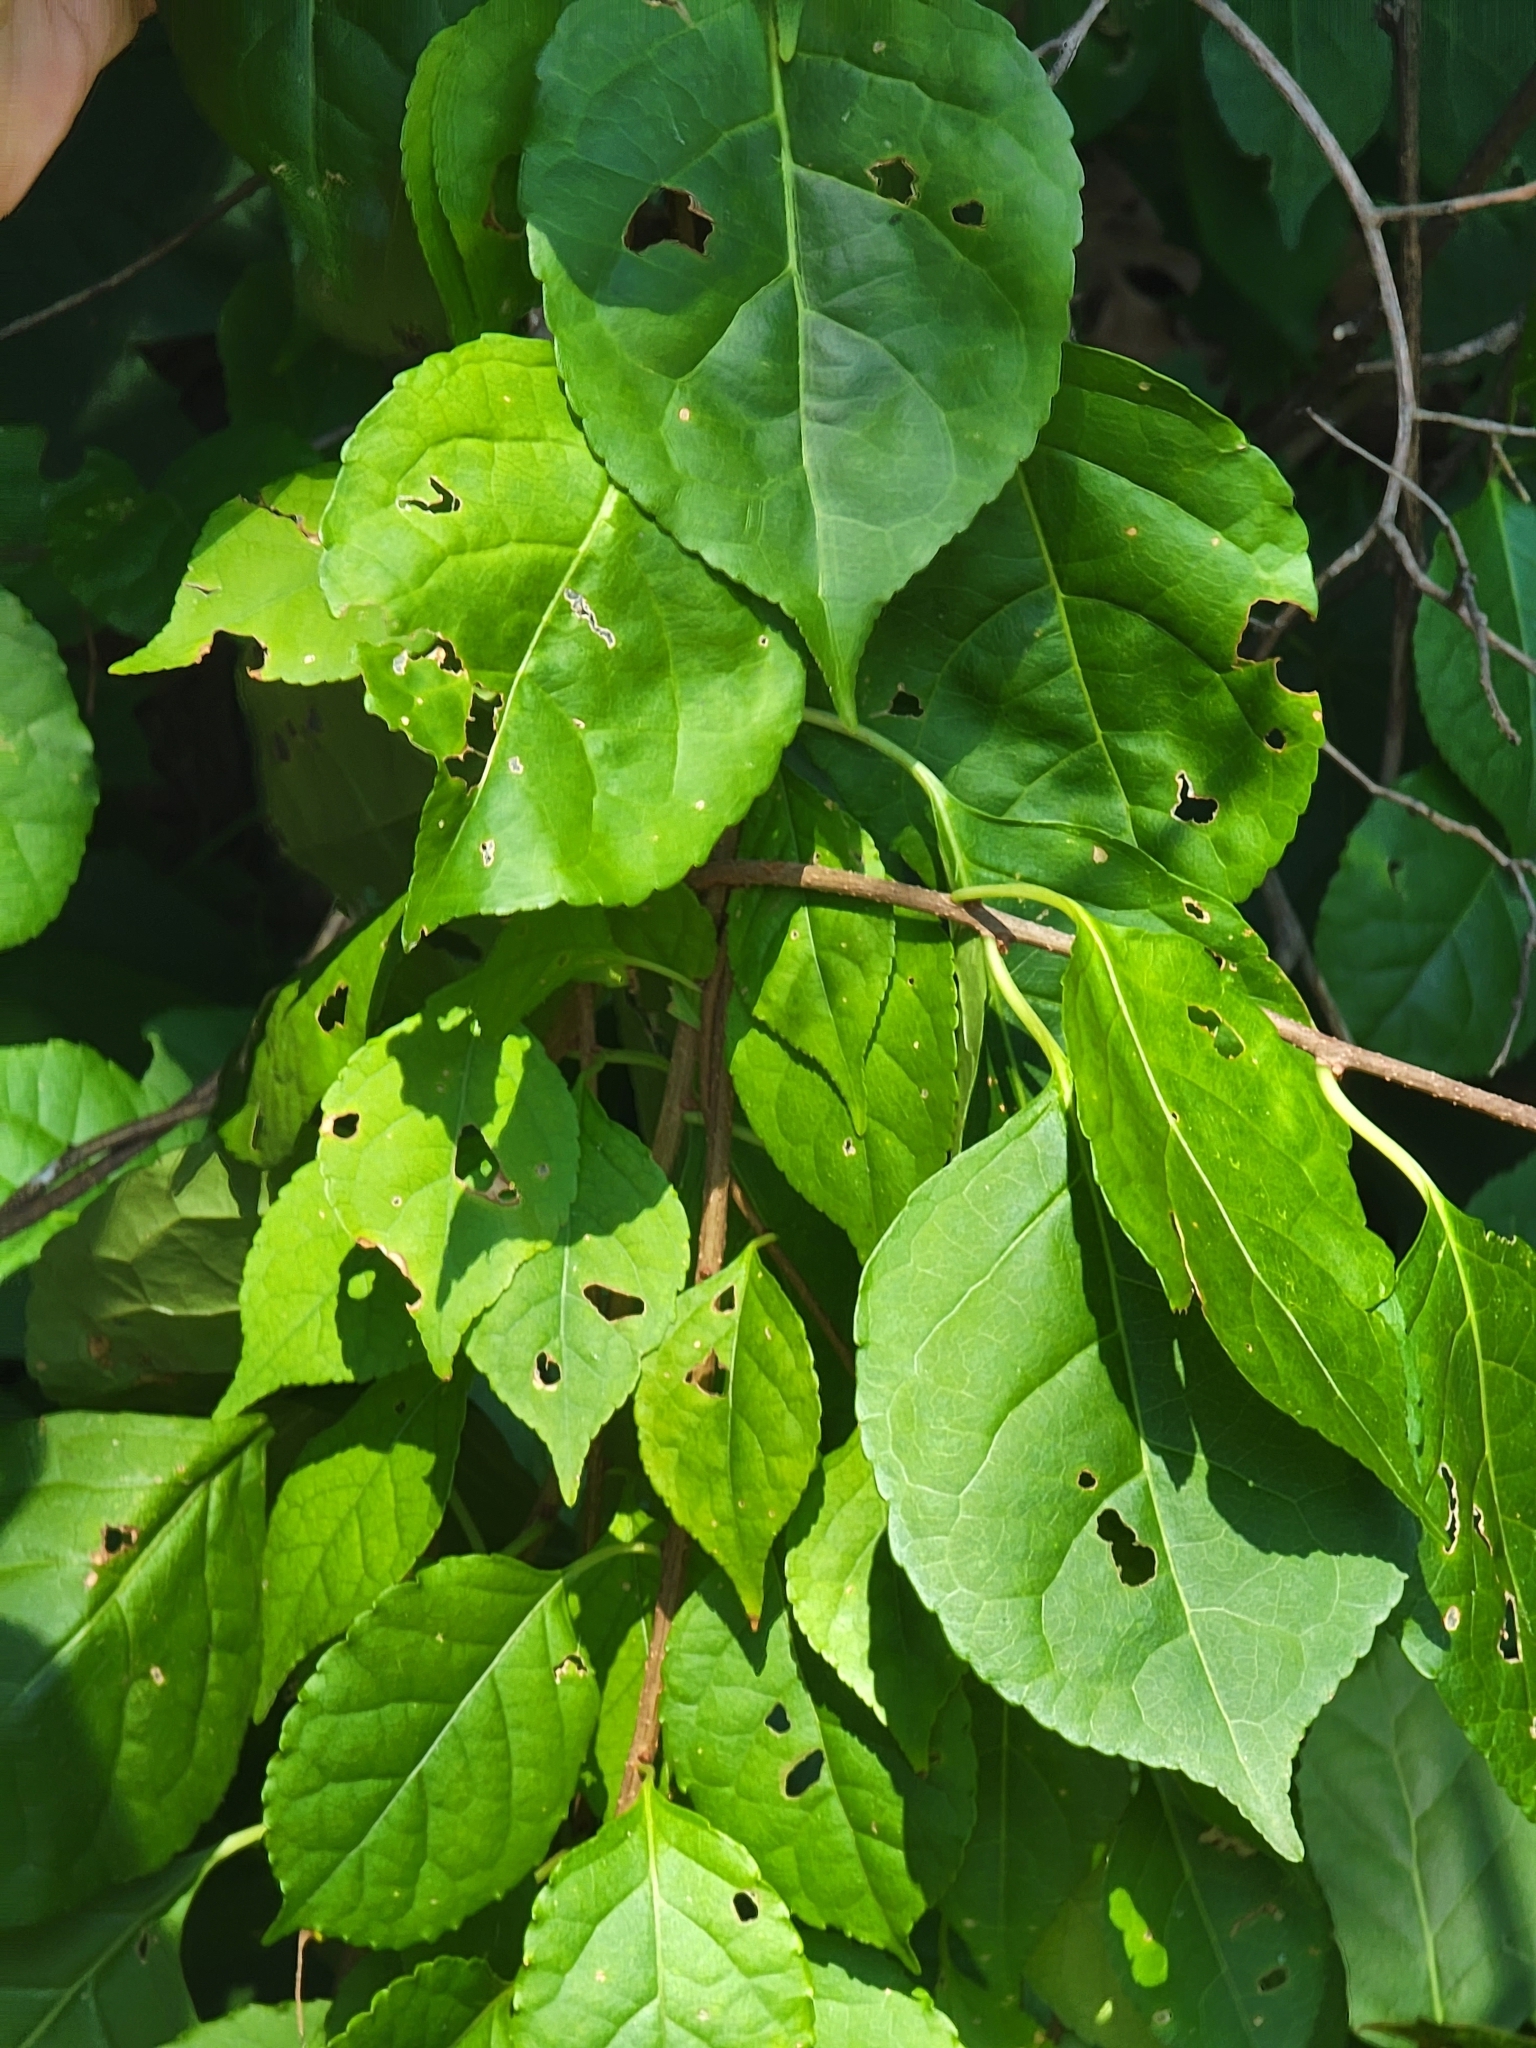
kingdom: Plantae
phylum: Tracheophyta
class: Magnoliopsida
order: Celastrales
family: Celastraceae
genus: Celastrus
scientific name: Celastrus orbiculatus
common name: Oriental bittersweet
